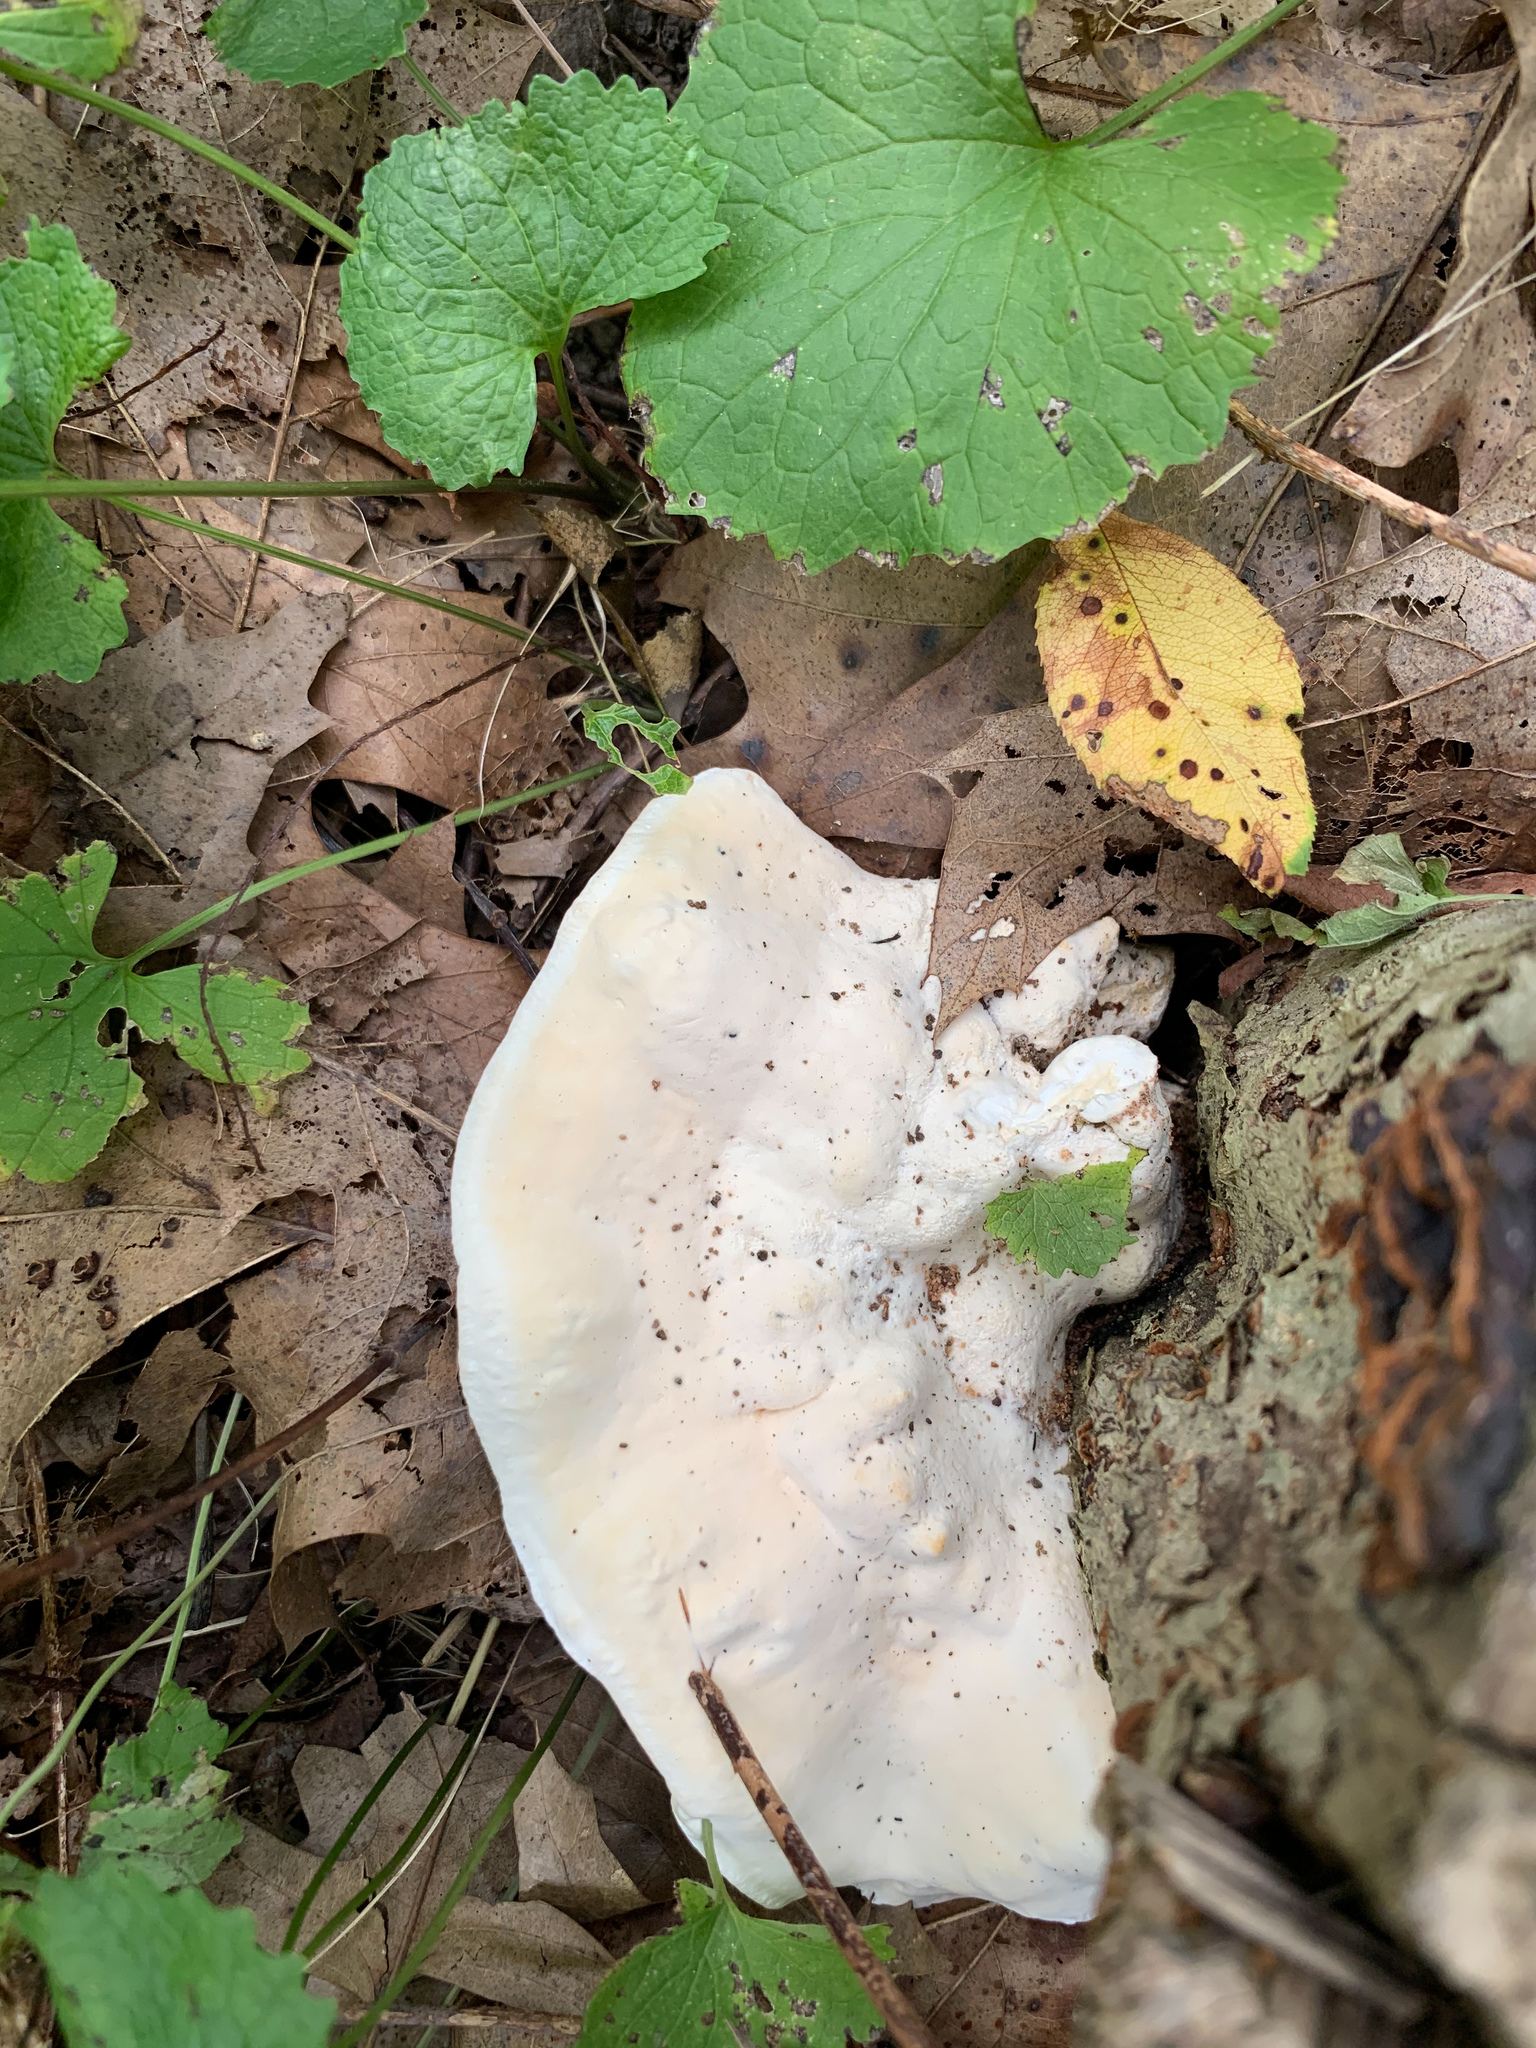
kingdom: Fungi
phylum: Basidiomycota
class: Agaricomycetes
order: Polyporales
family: Polyporaceae
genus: Trametes
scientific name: Trametes gibbosa
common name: Lumpy bracket
